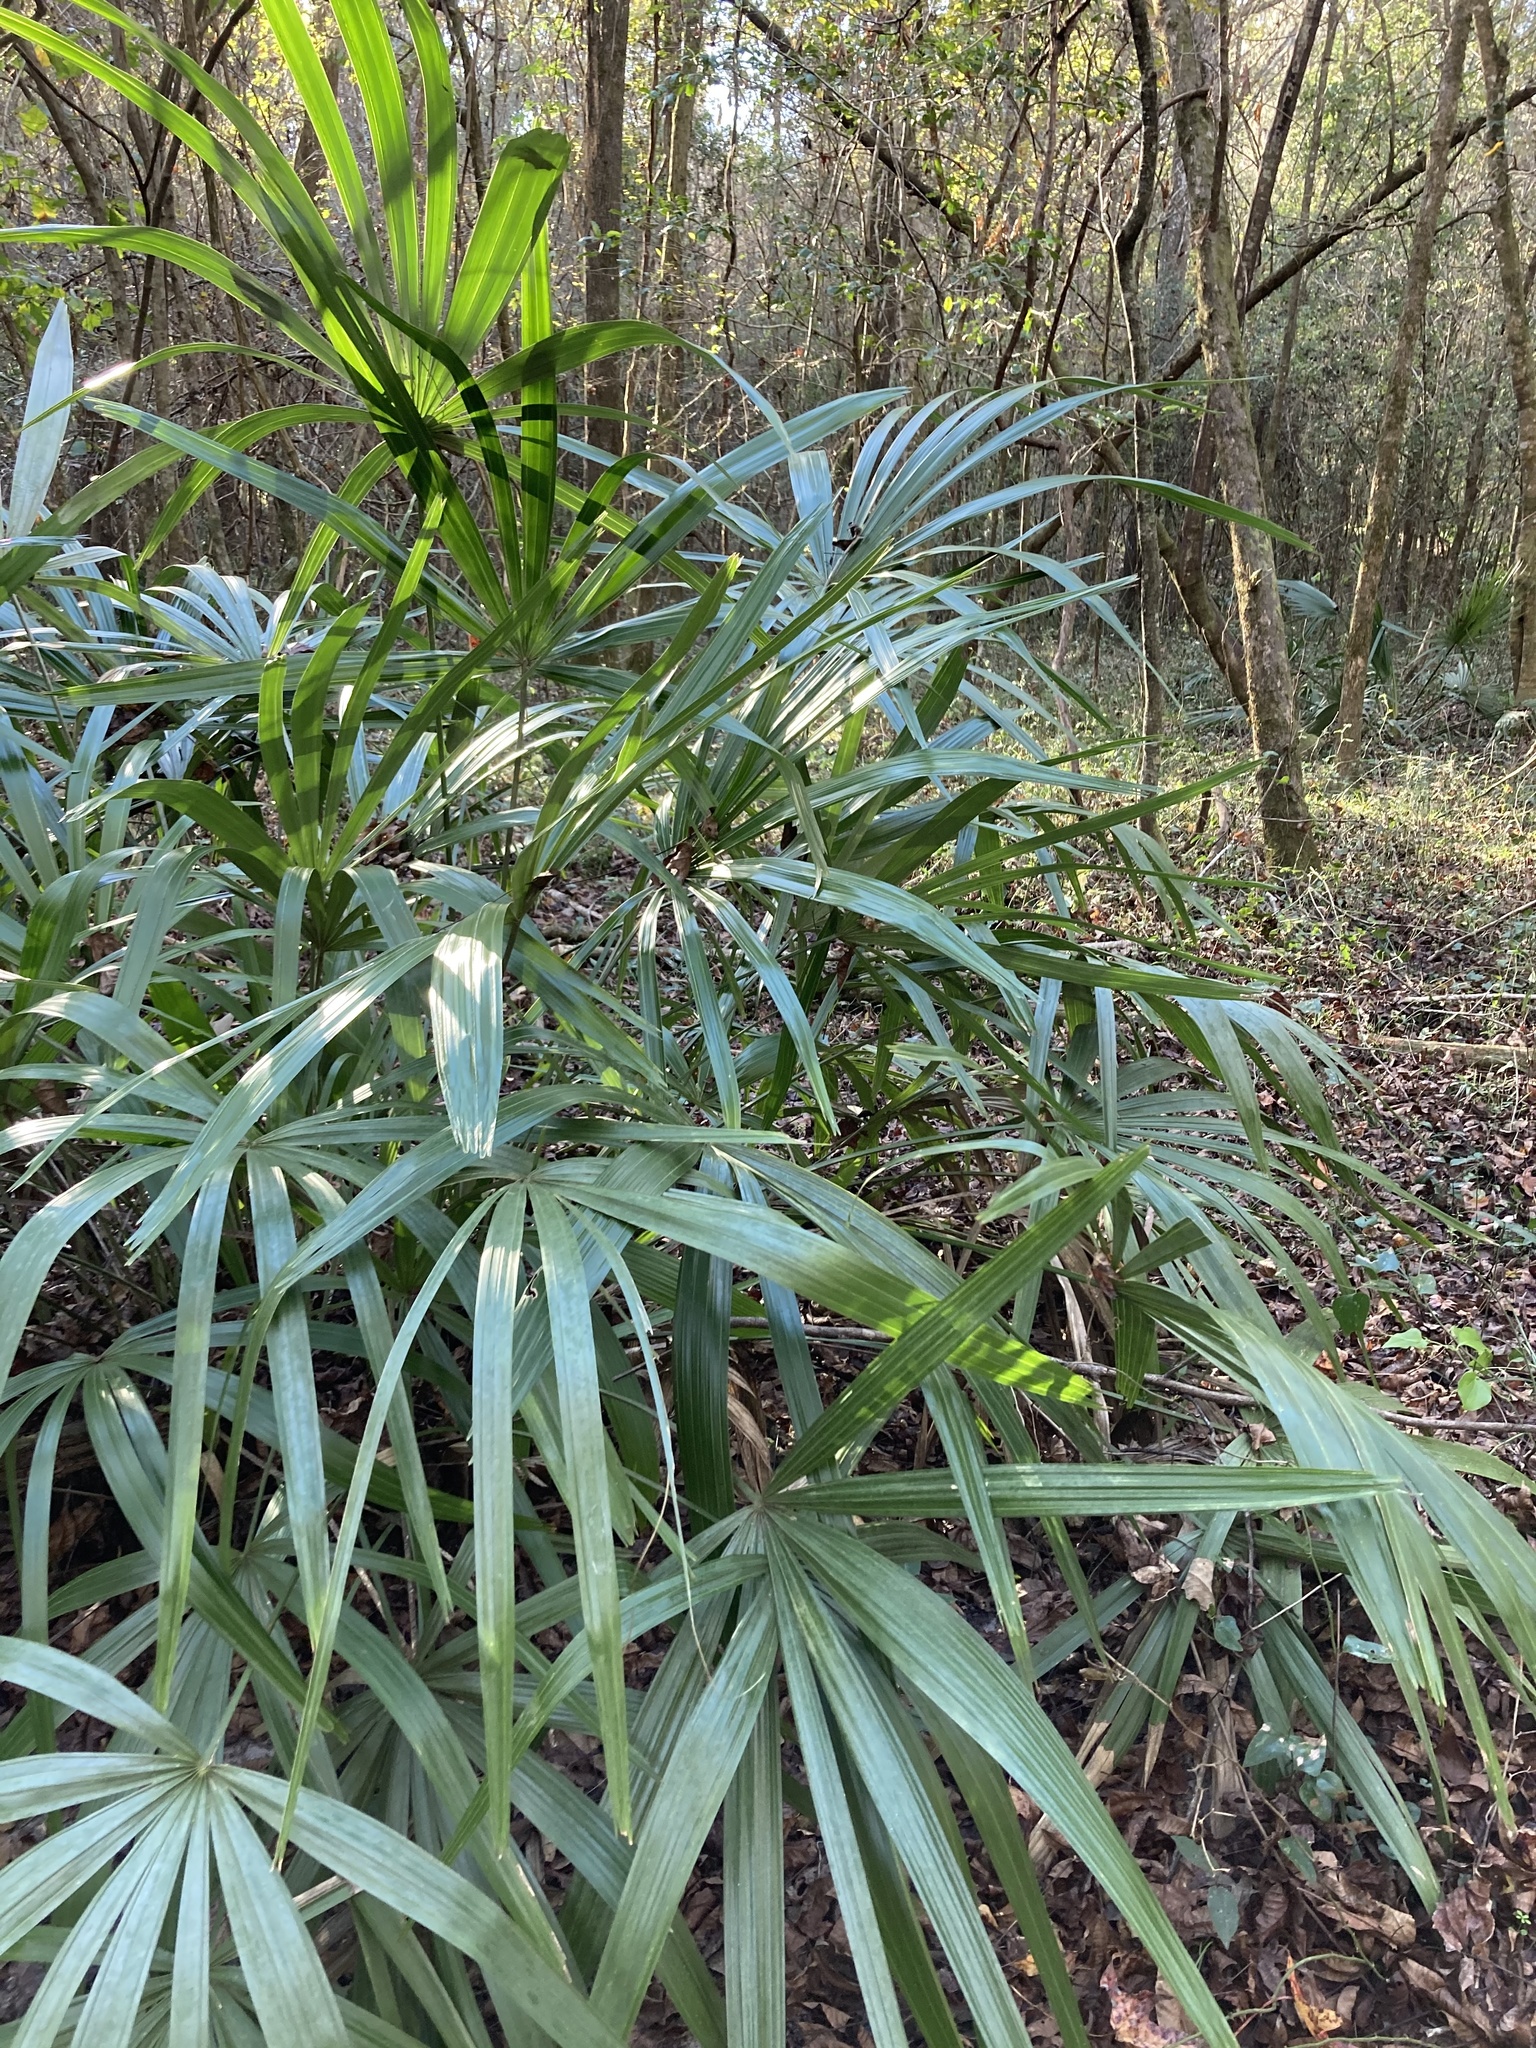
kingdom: Plantae
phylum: Tracheophyta
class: Liliopsida
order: Arecales
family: Arecaceae
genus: Rhapidophyllum
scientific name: Rhapidophyllum hystrix
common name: Porcupine palm
